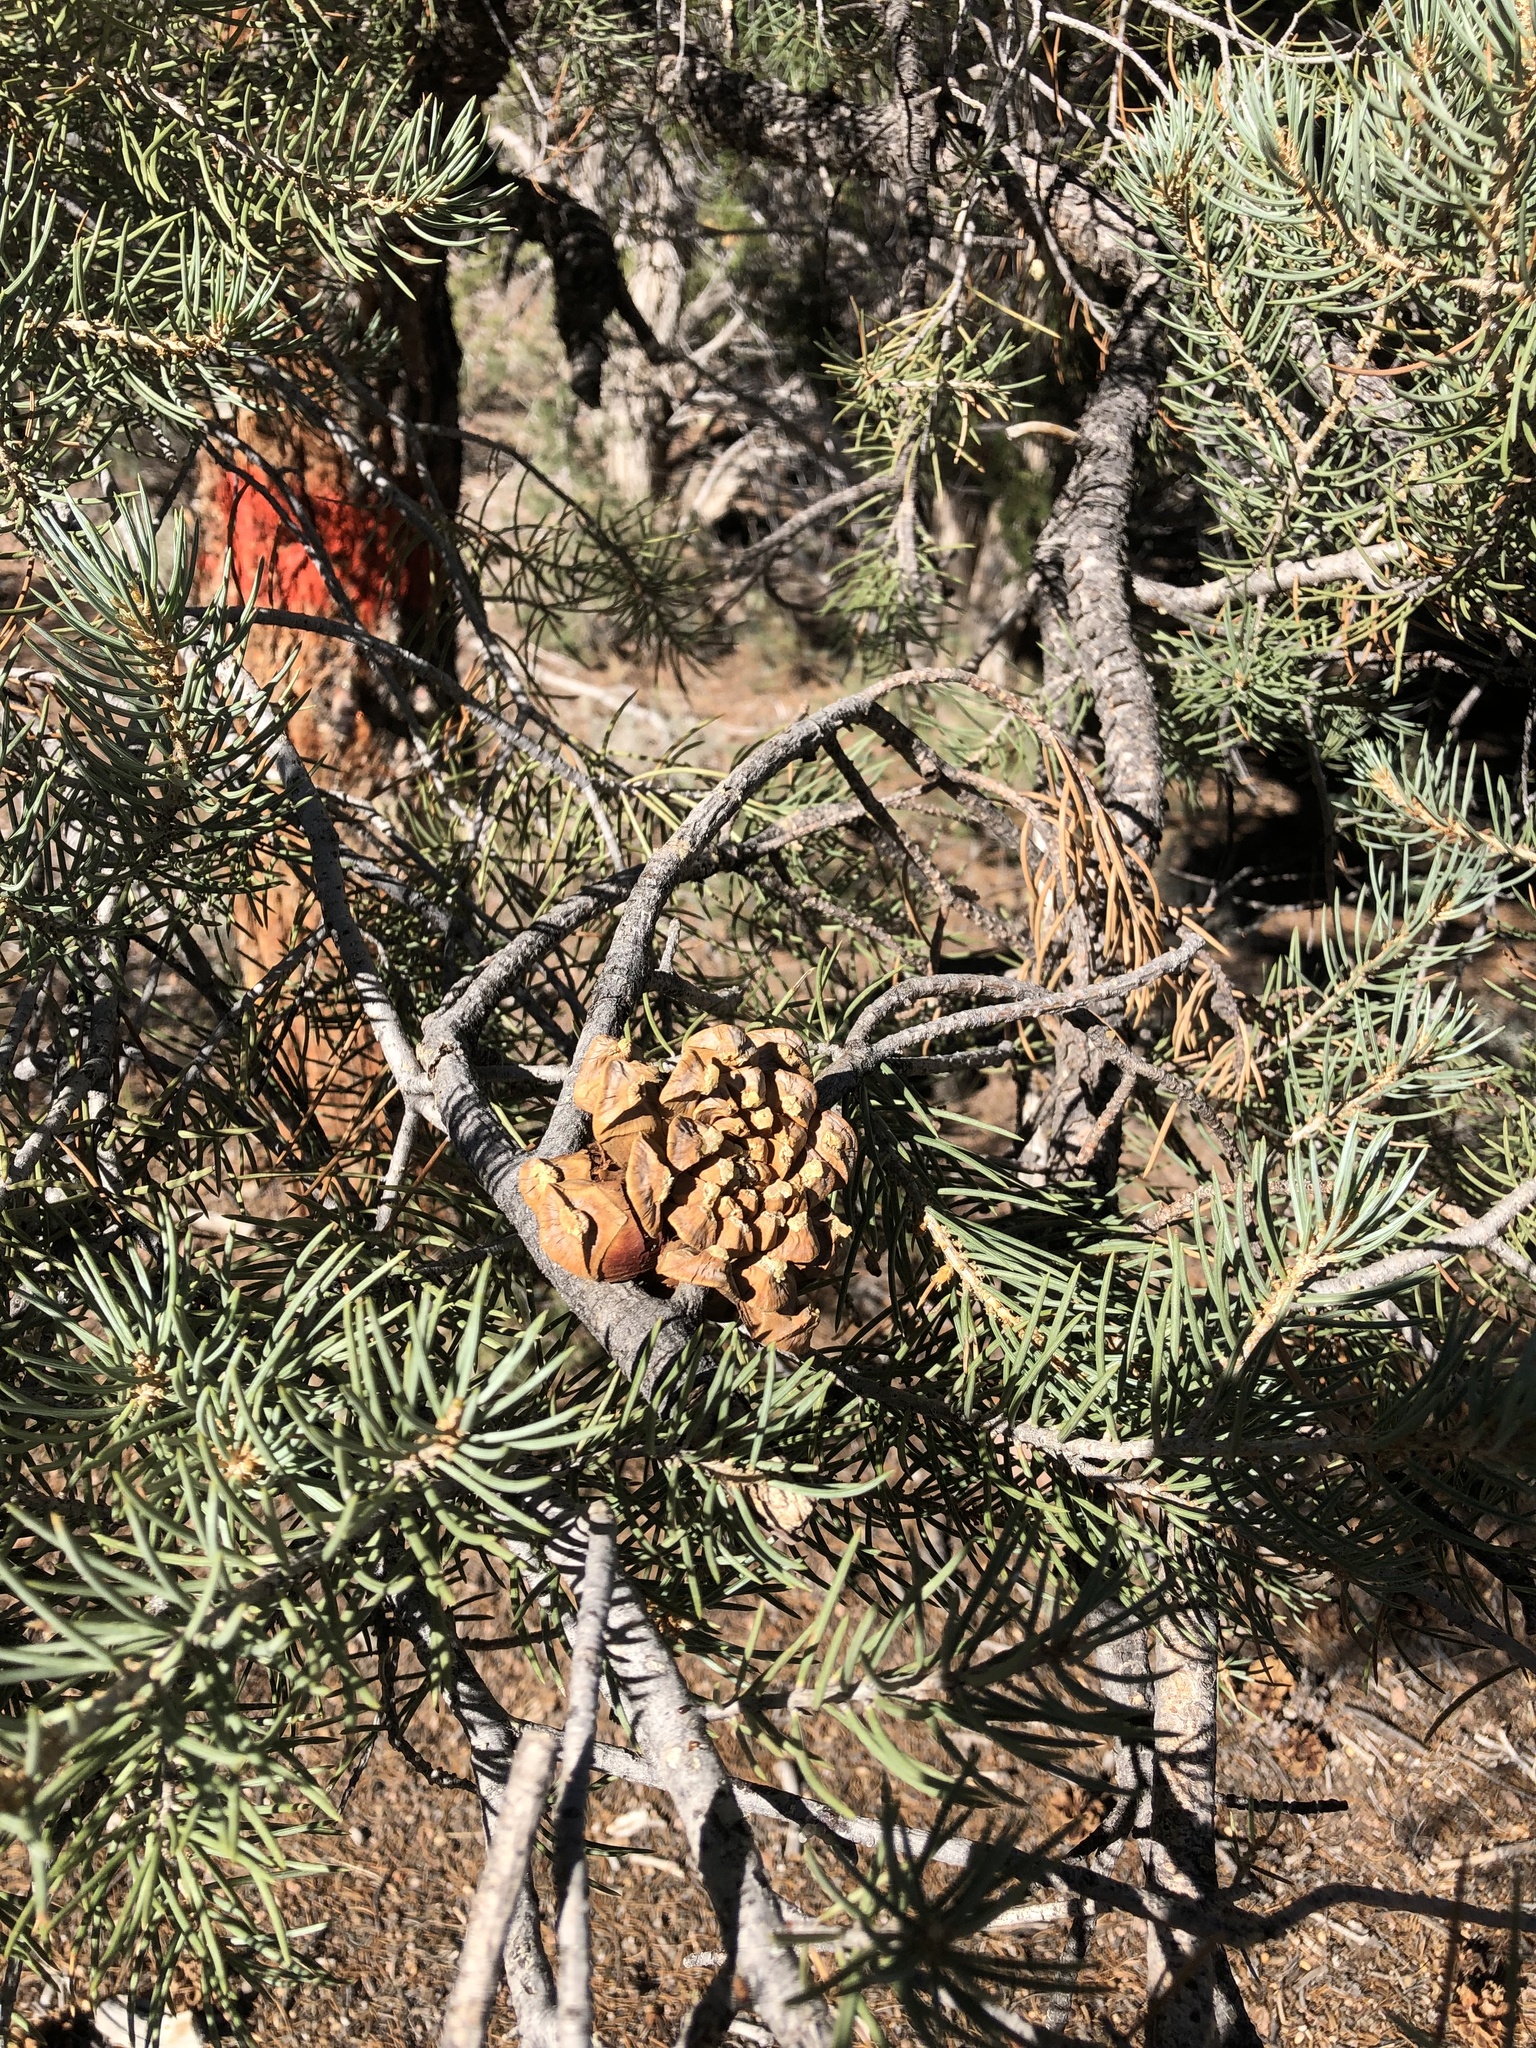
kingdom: Plantae
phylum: Tracheophyta
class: Pinopsida
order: Pinales
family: Pinaceae
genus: Pinus
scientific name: Pinus monophylla
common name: One-leaved nut pine
